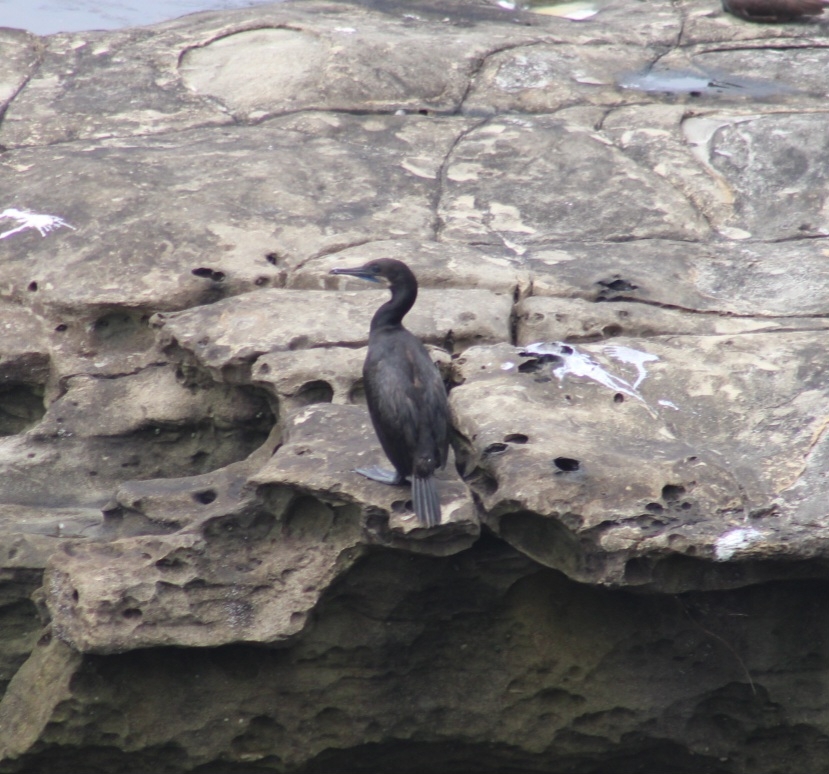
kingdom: Animalia
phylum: Chordata
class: Aves
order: Suliformes
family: Phalacrocoracidae
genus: Urile
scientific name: Urile penicillatus
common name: Brandt's cormorant
